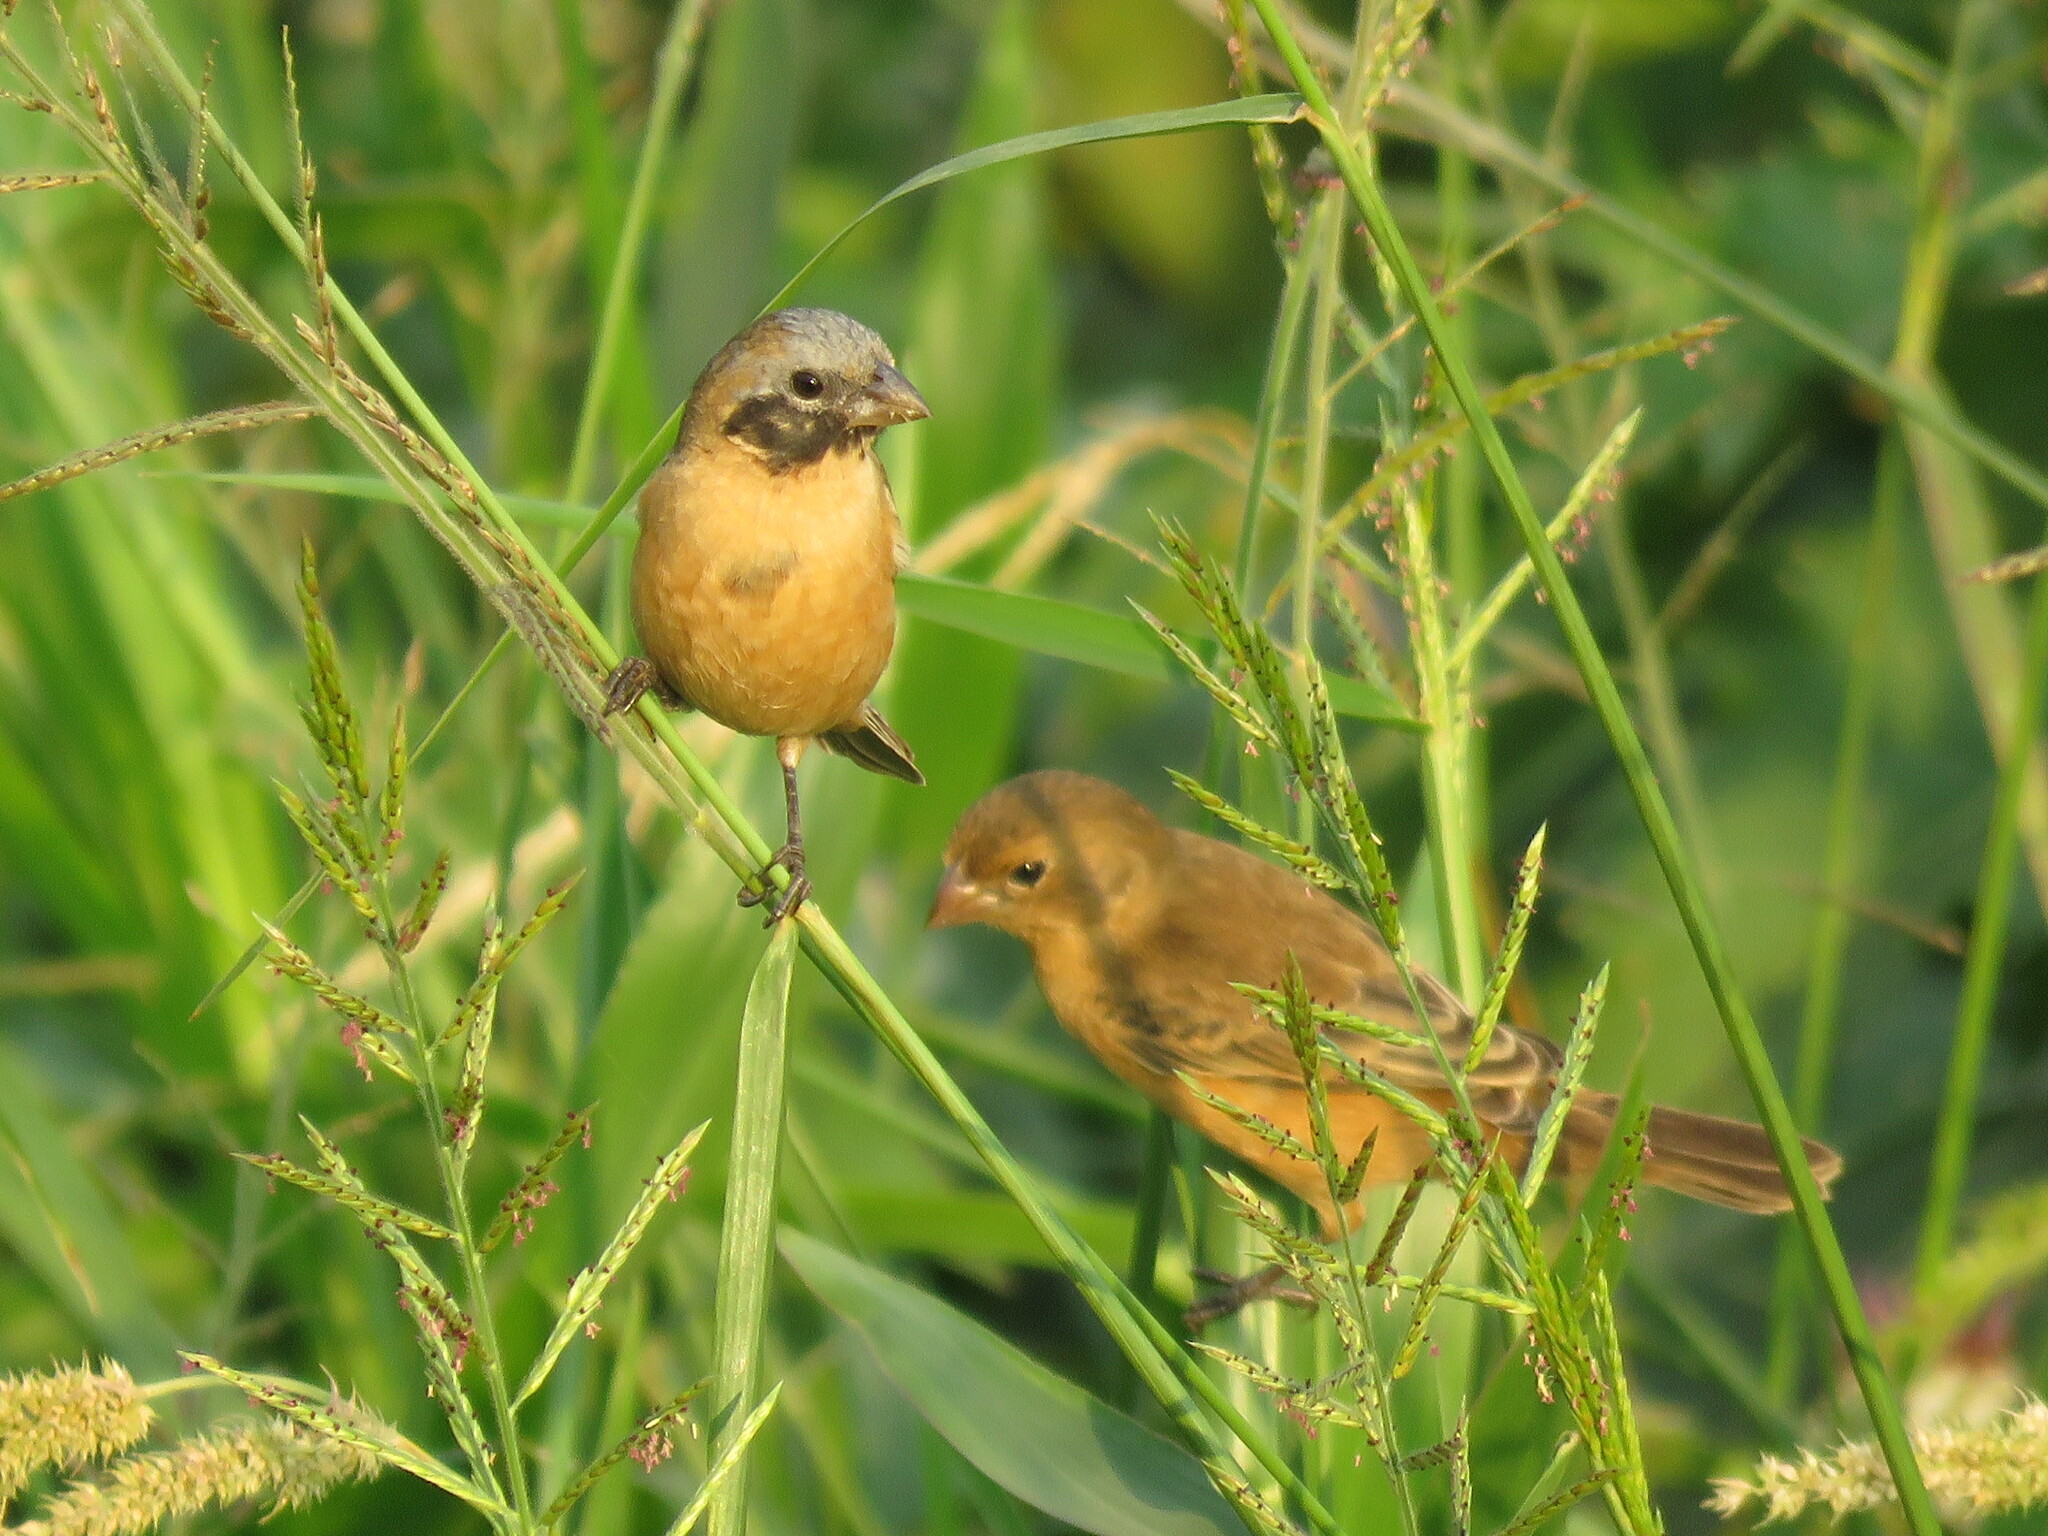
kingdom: Animalia
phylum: Chordata
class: Aves
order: Passeriformes
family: Thraupidae
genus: Sporophila
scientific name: Sporophila ruficollis
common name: Dark-throated seedeater
